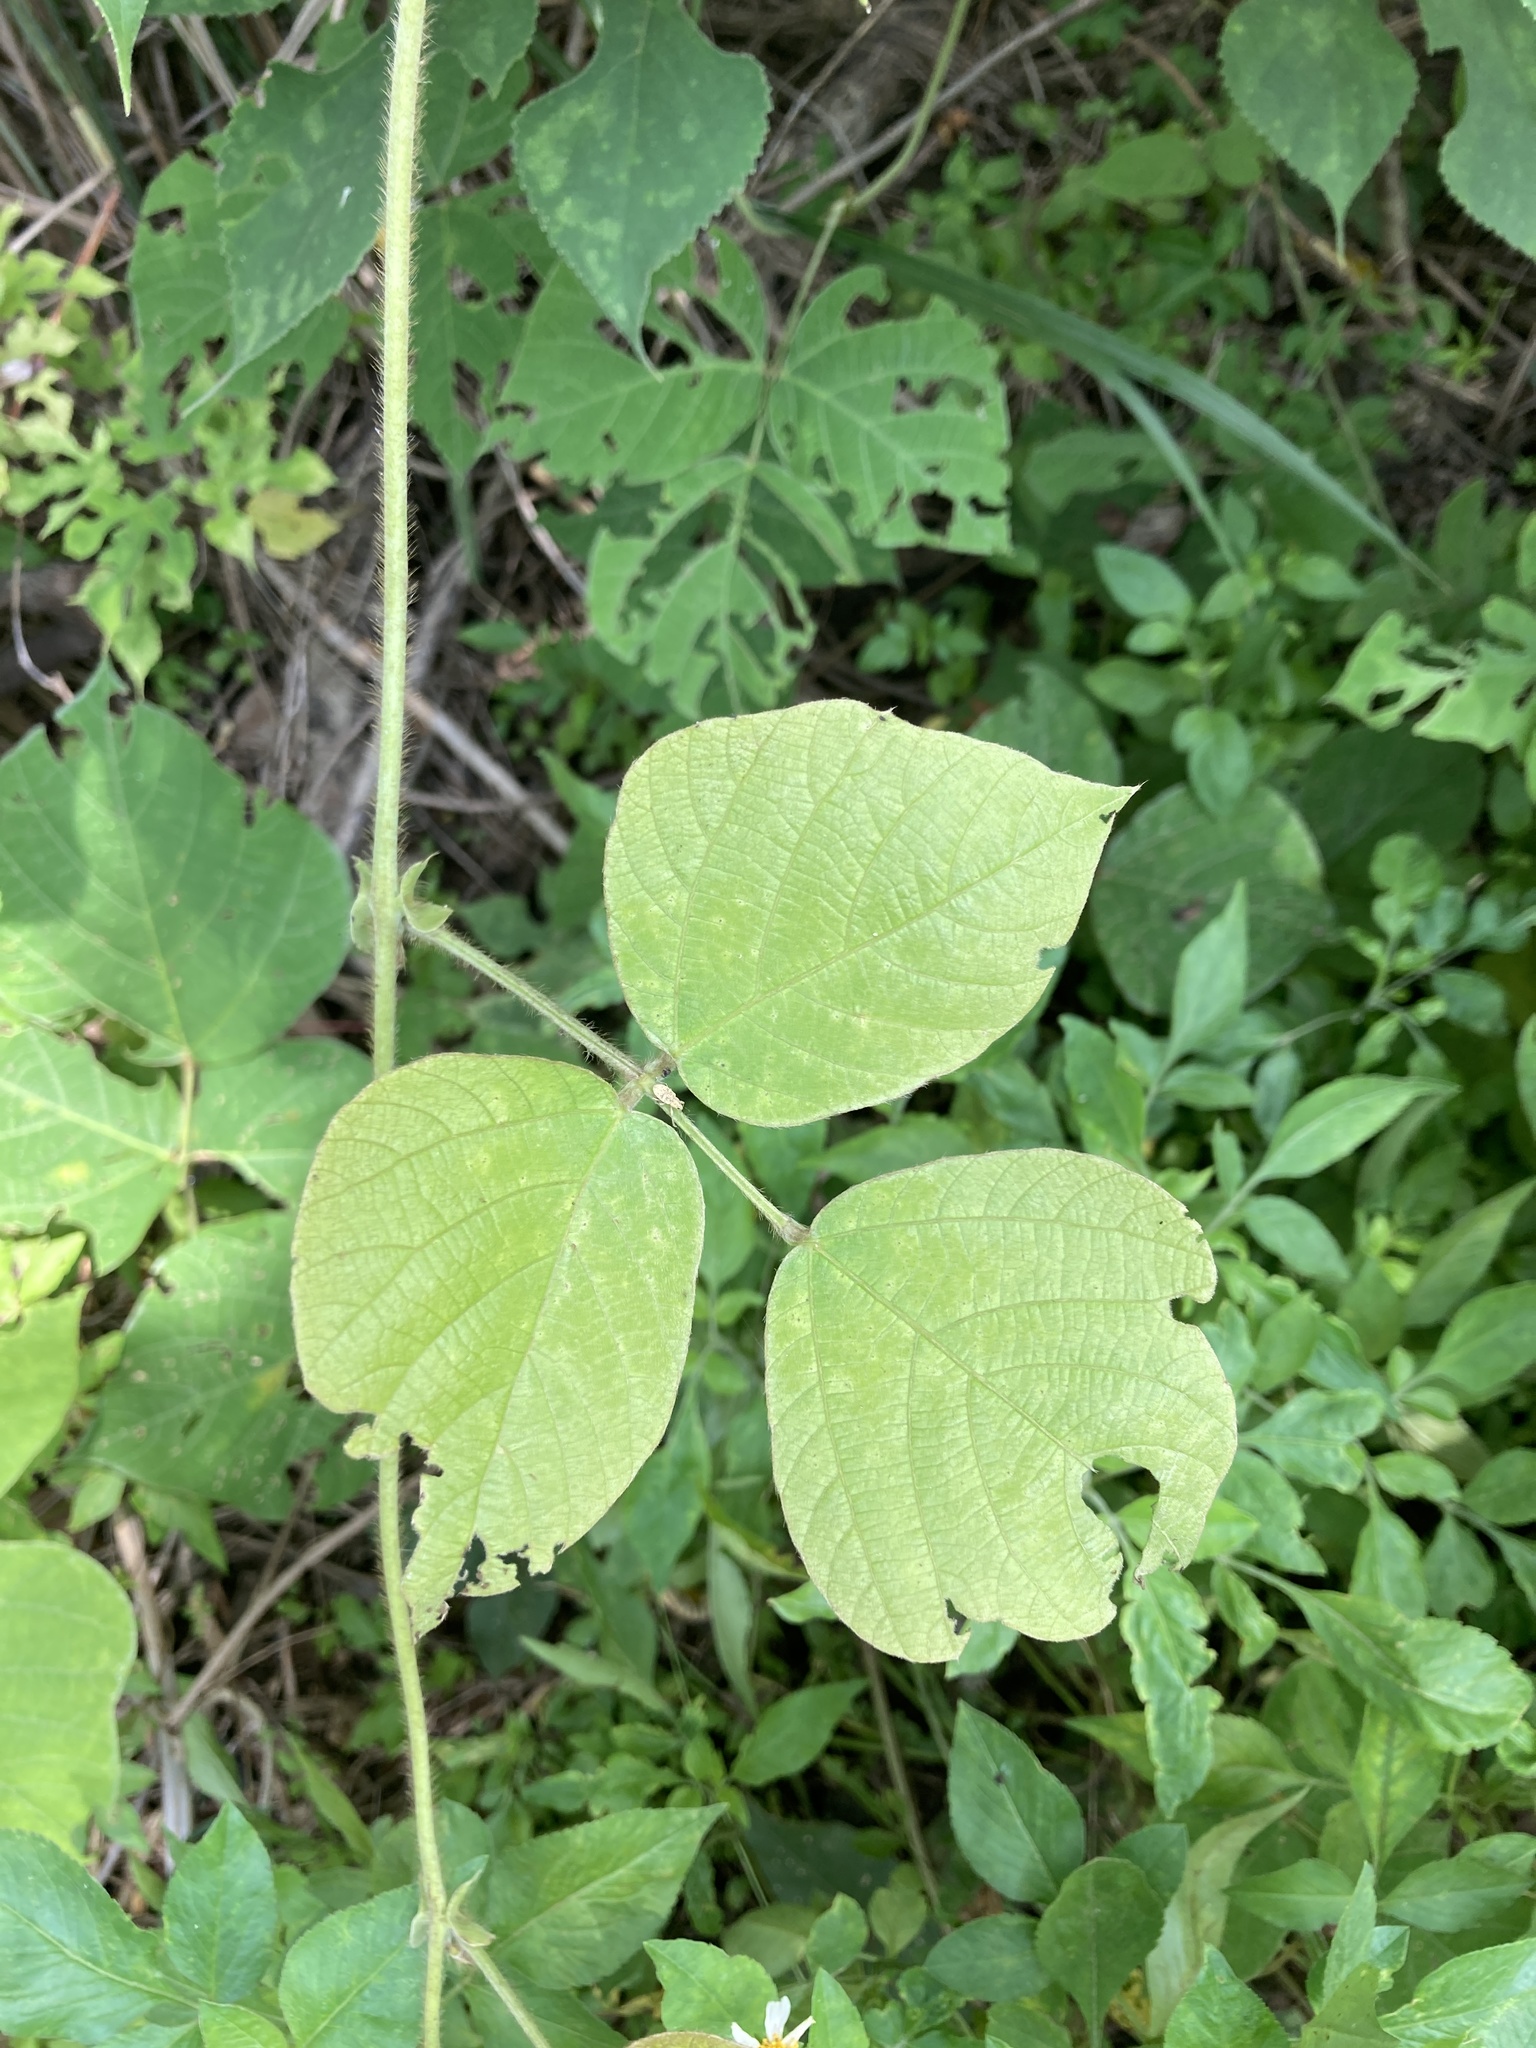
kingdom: Plantae
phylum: Tracheophyta
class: Magnoliopsida
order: Fabales
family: Fabaceae
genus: Pueraria
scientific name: Pueraria montana
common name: Kudzu
